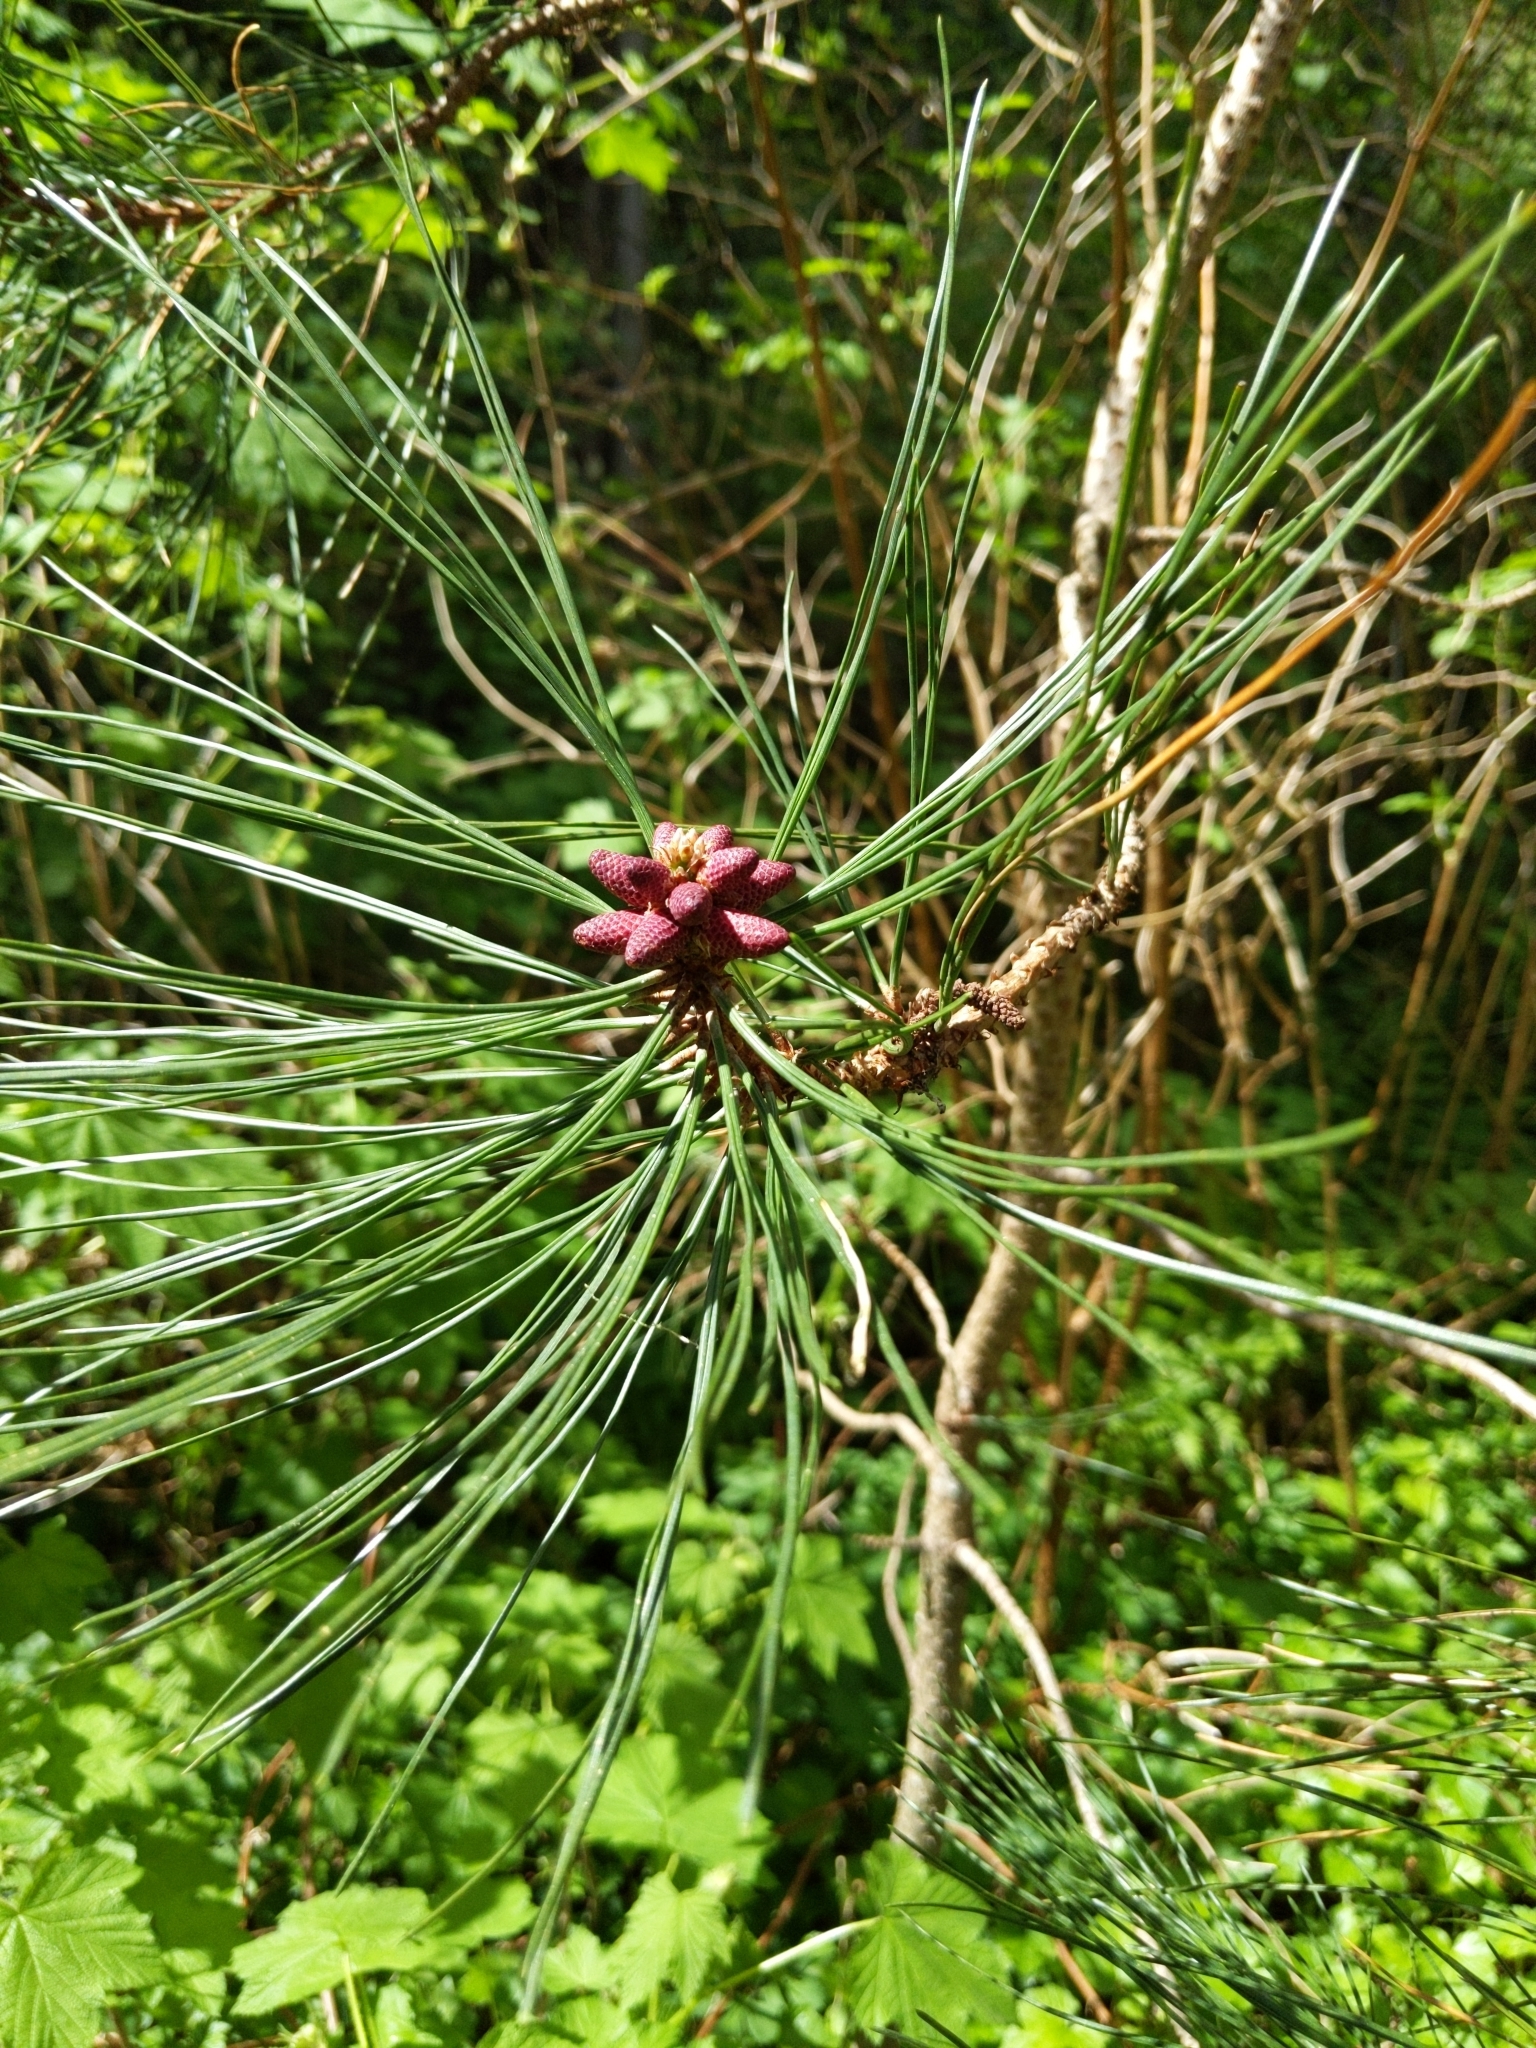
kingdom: Plantae
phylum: Tracheophyta
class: Pinopsida
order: Pinales
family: Pinaceae
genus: Pinus
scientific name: Pinus monticola
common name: Western white pine
